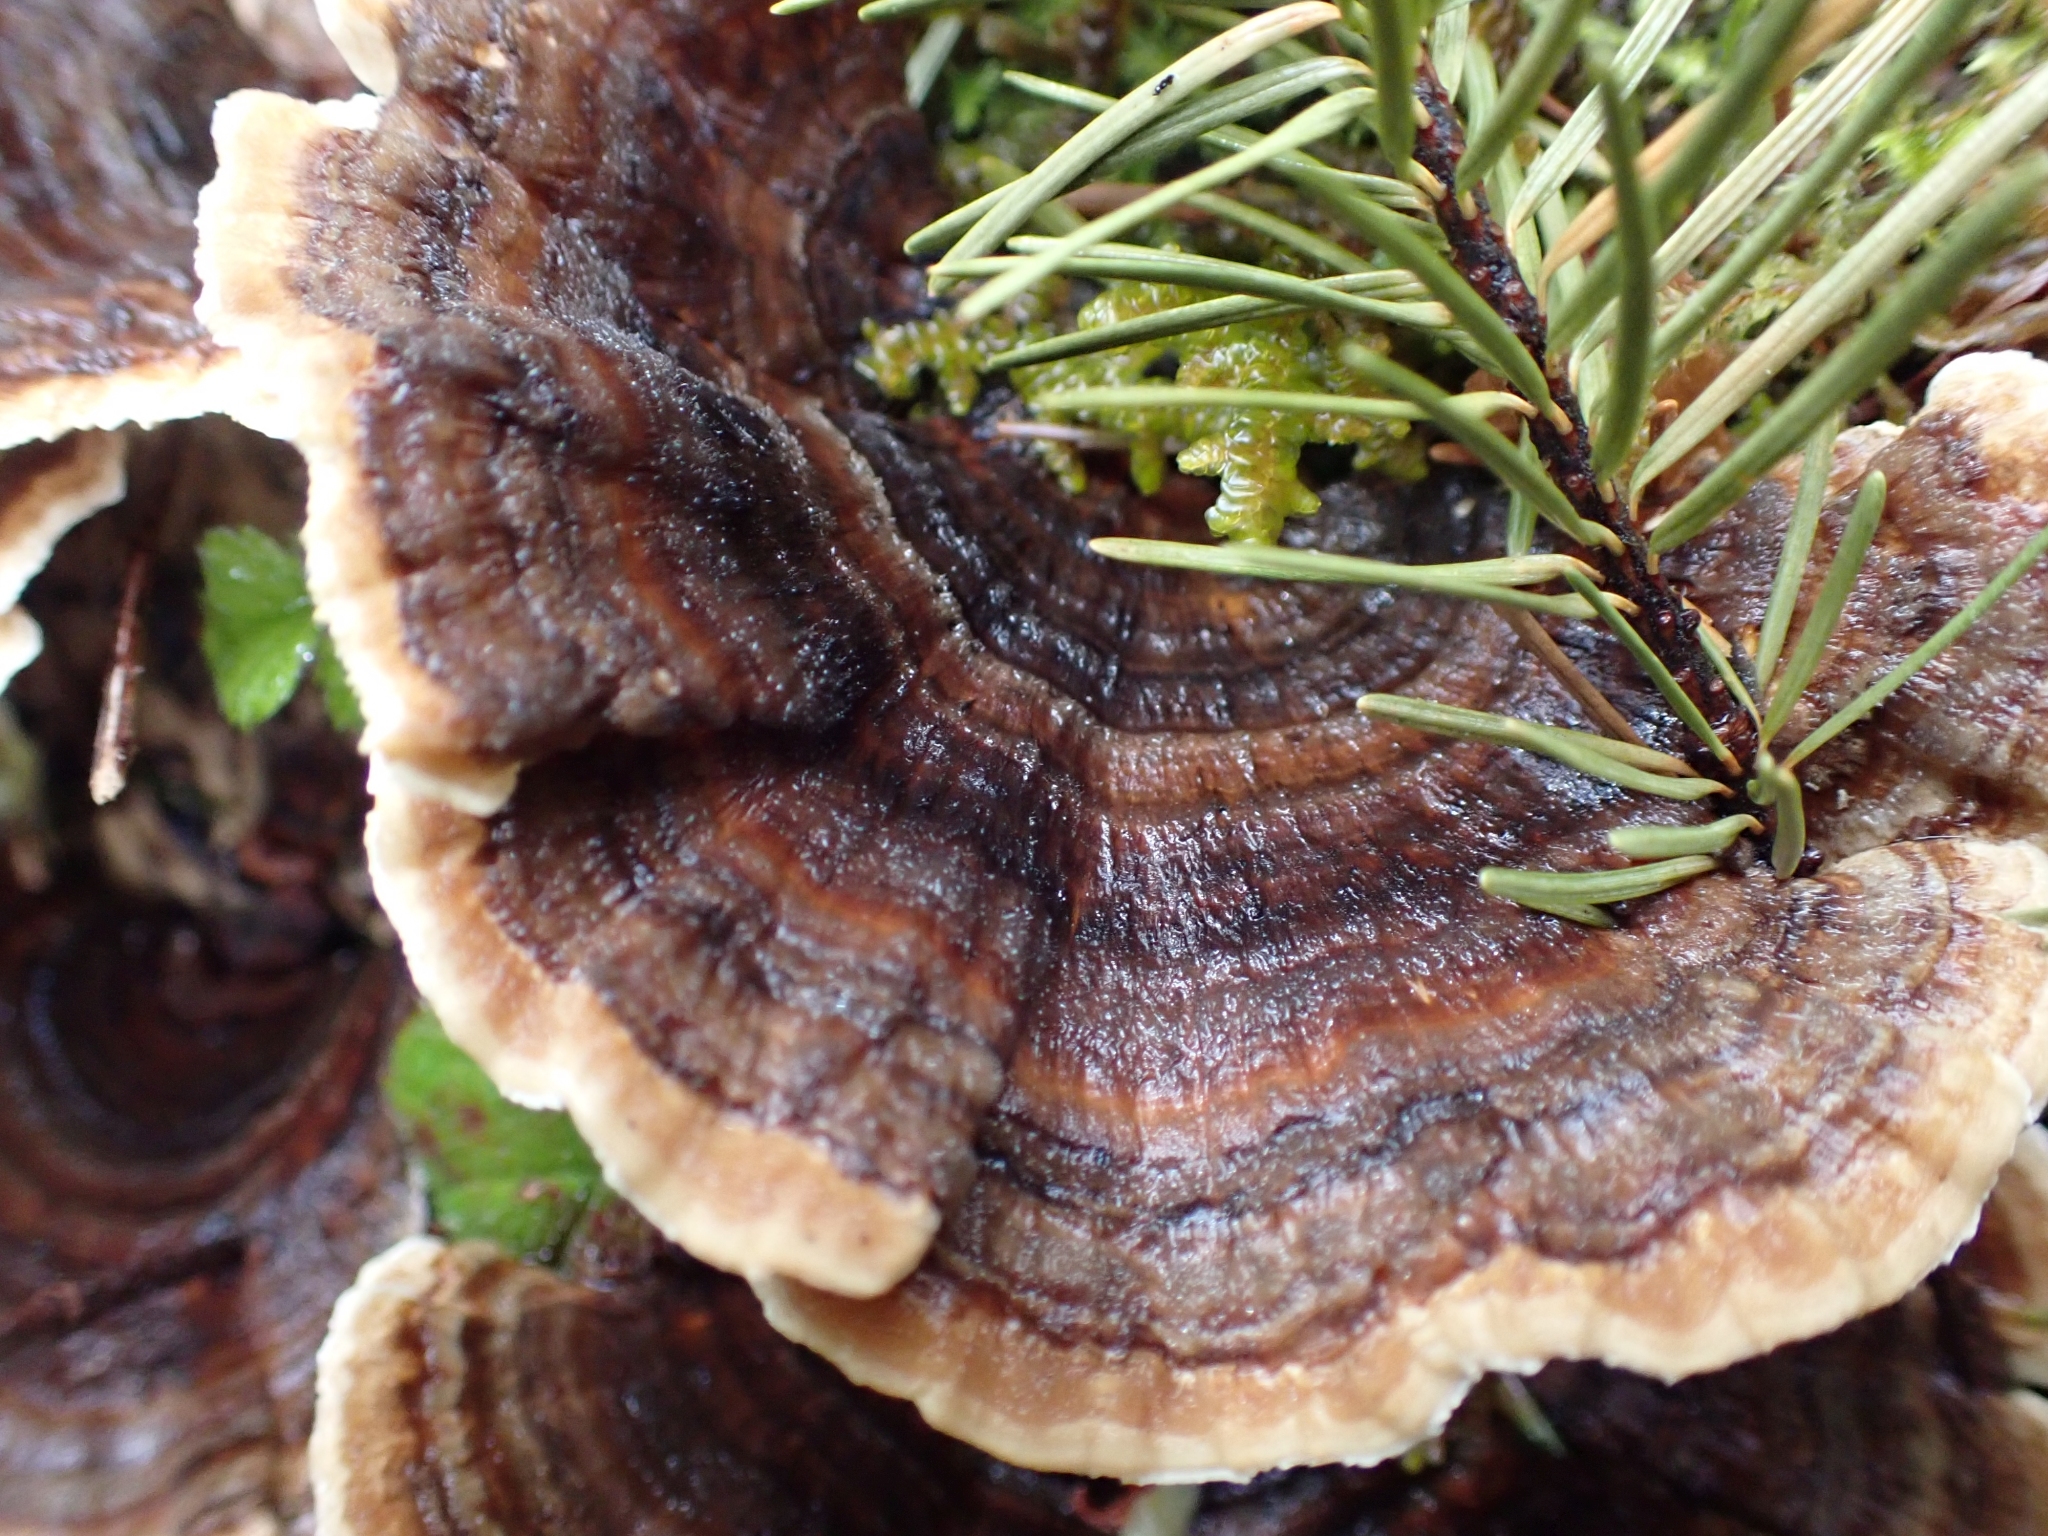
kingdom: Fungi
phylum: Basidiomycota
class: Agaricomycetes
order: Polyporales
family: Polyporaceae
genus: Trametes
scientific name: Trametes versicolor
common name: Turkeytail
